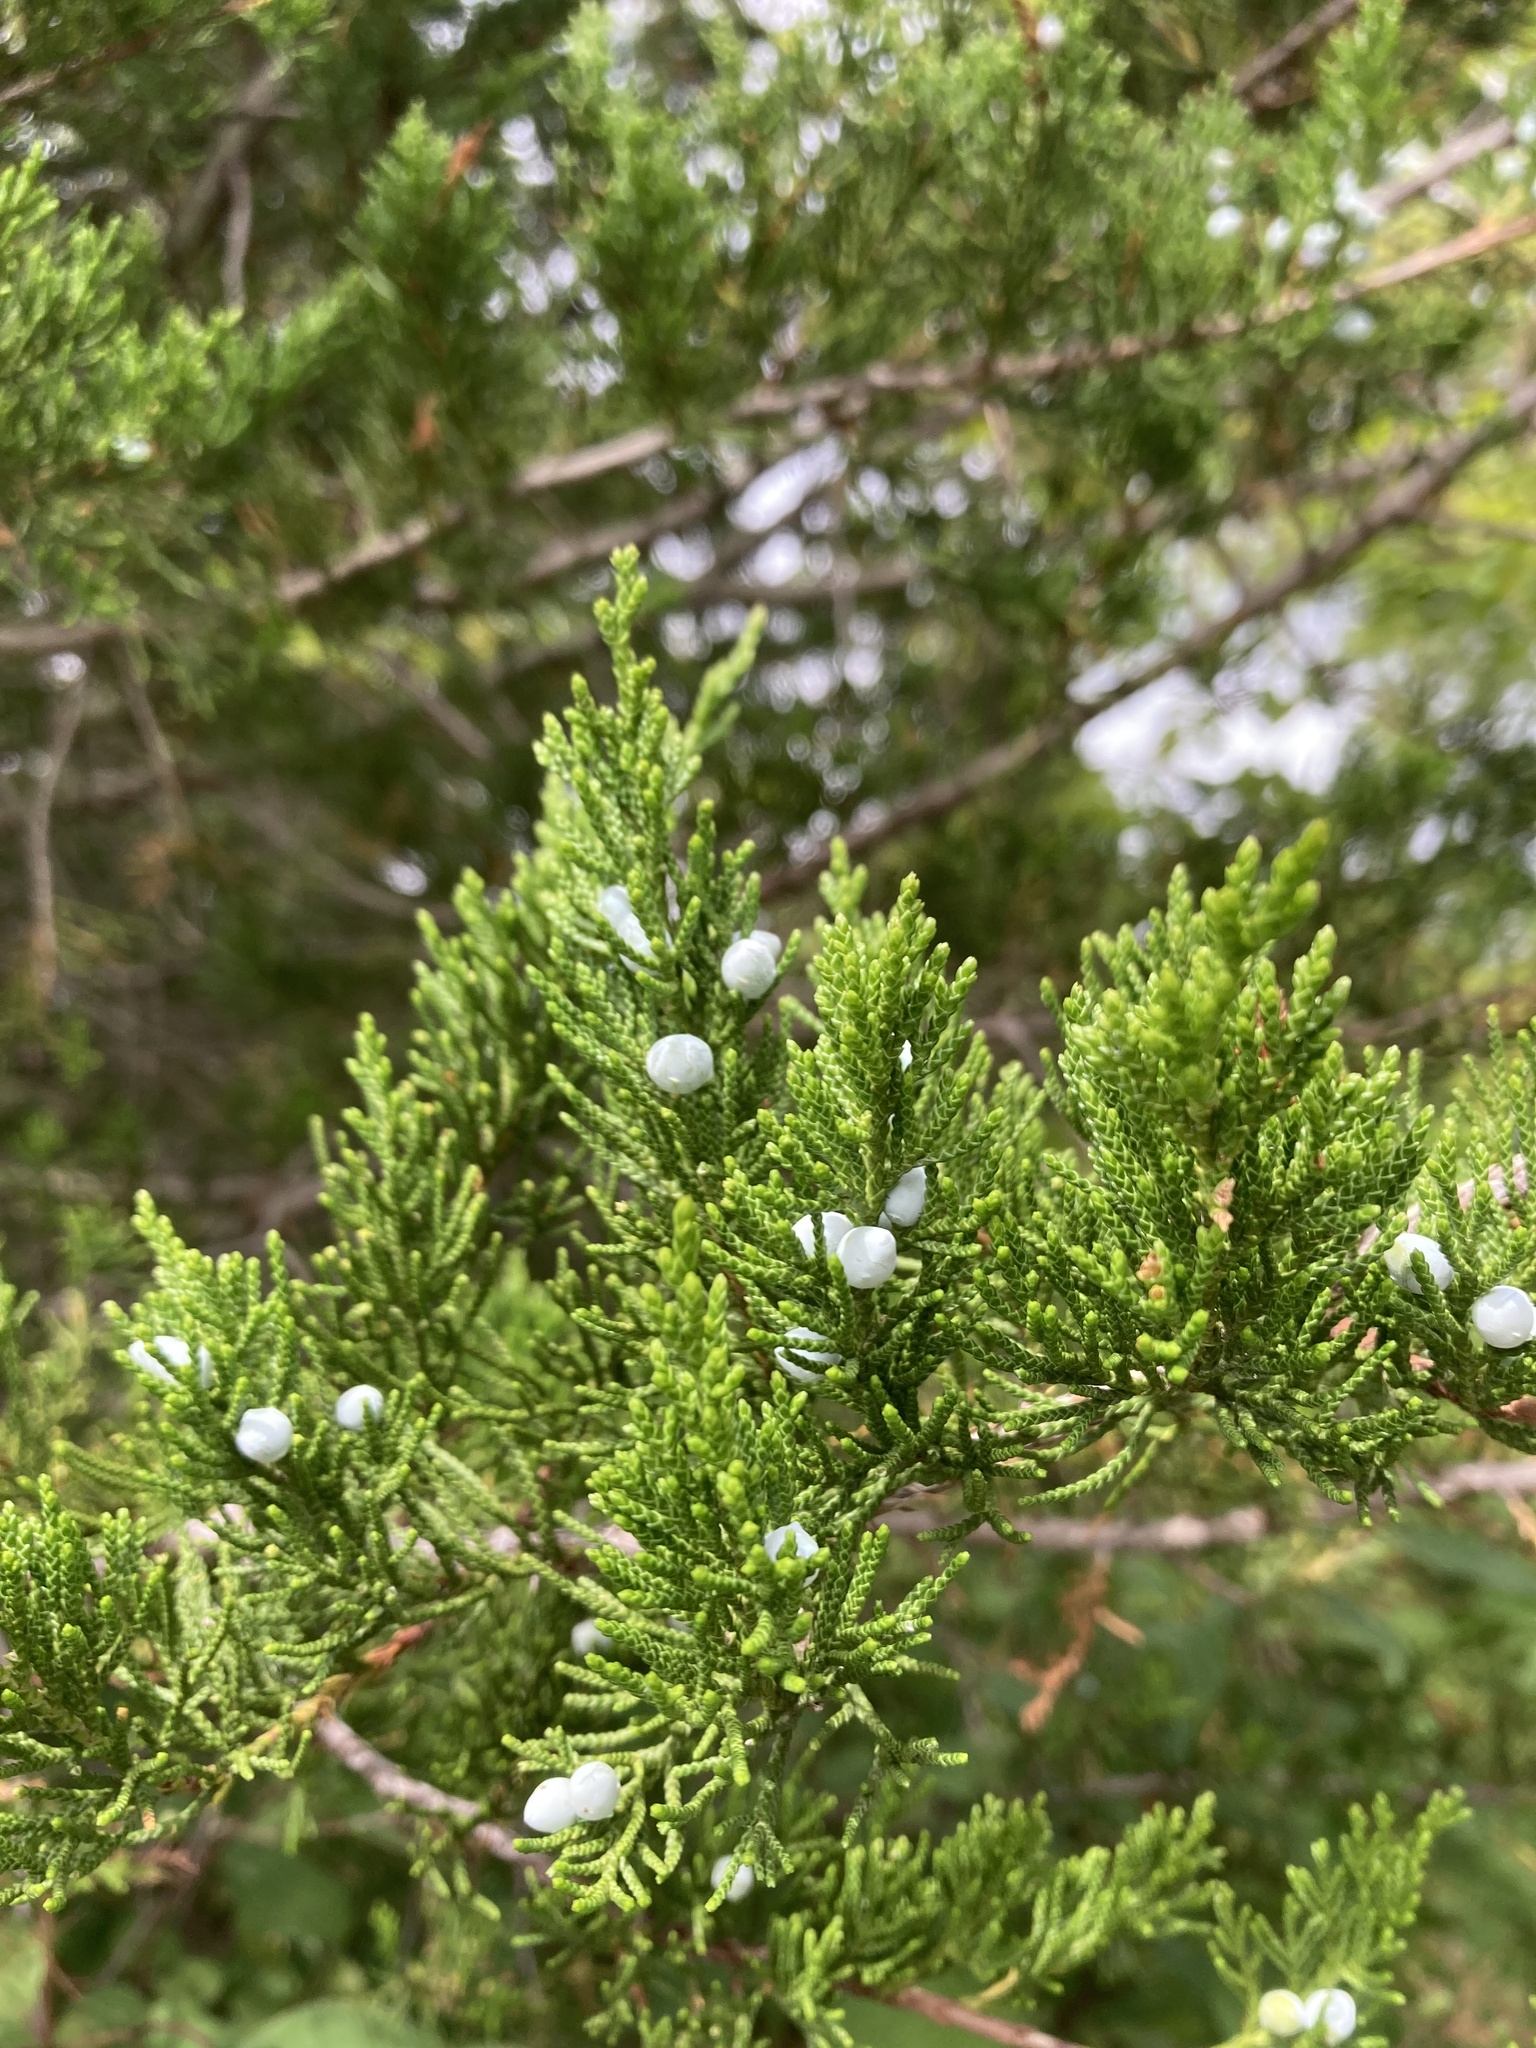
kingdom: Plantae
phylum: Tracheophyta
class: Pinopsida
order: Pinales
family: Cupressaceae
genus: Juniperus
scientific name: Juniperus virginiana
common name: Red juniper
